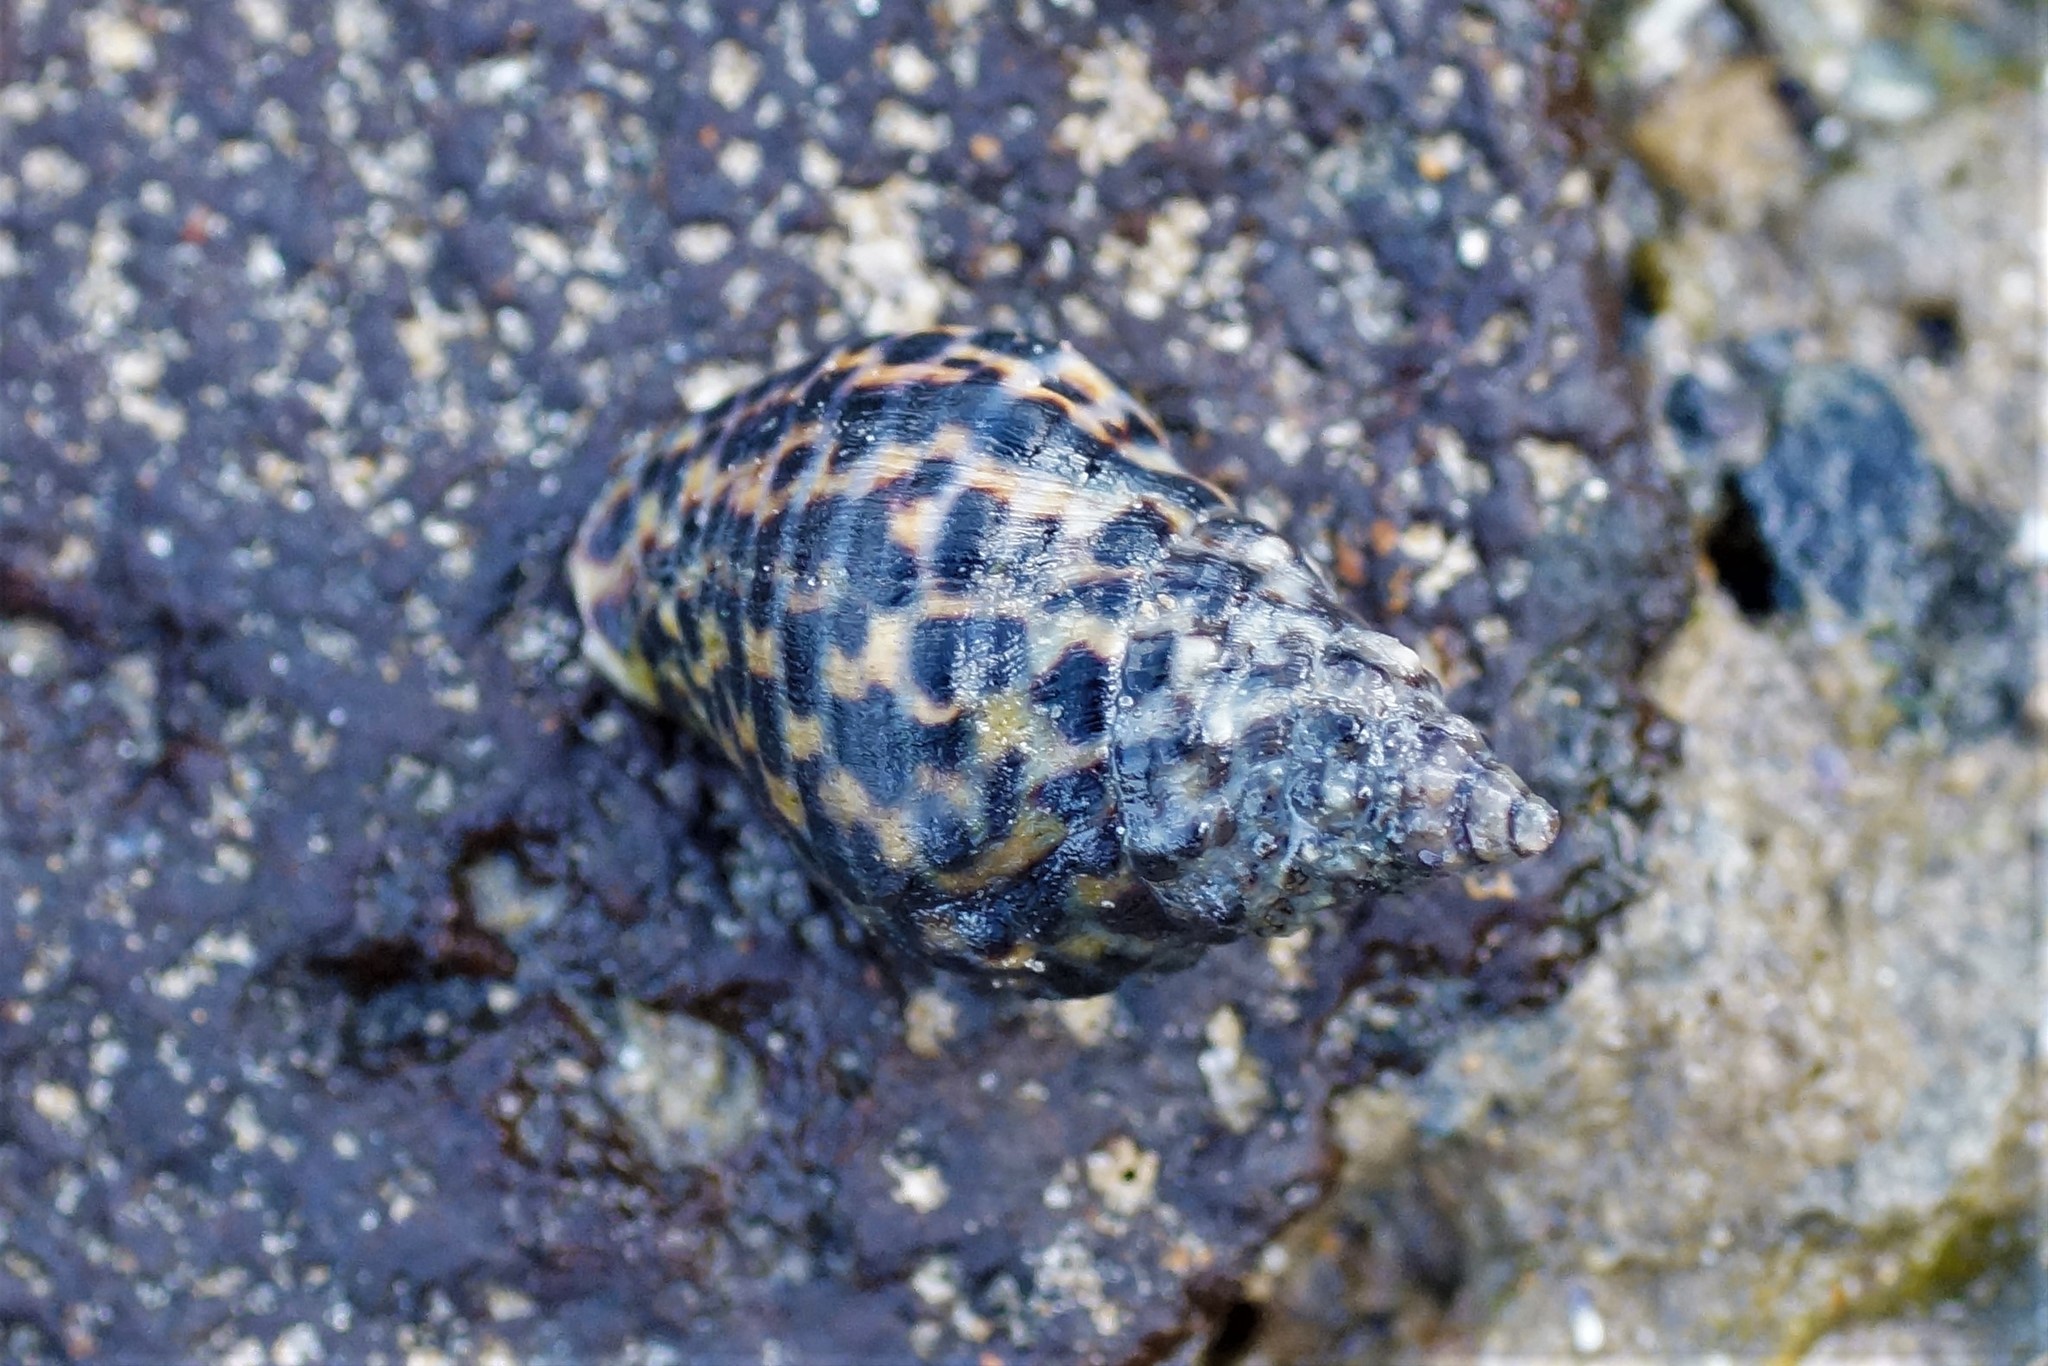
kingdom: Animalia
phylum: Mollusca
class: Gastropoda
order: Neogastropoda
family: Cominellidae
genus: Cominella
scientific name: Cominella lineolata
